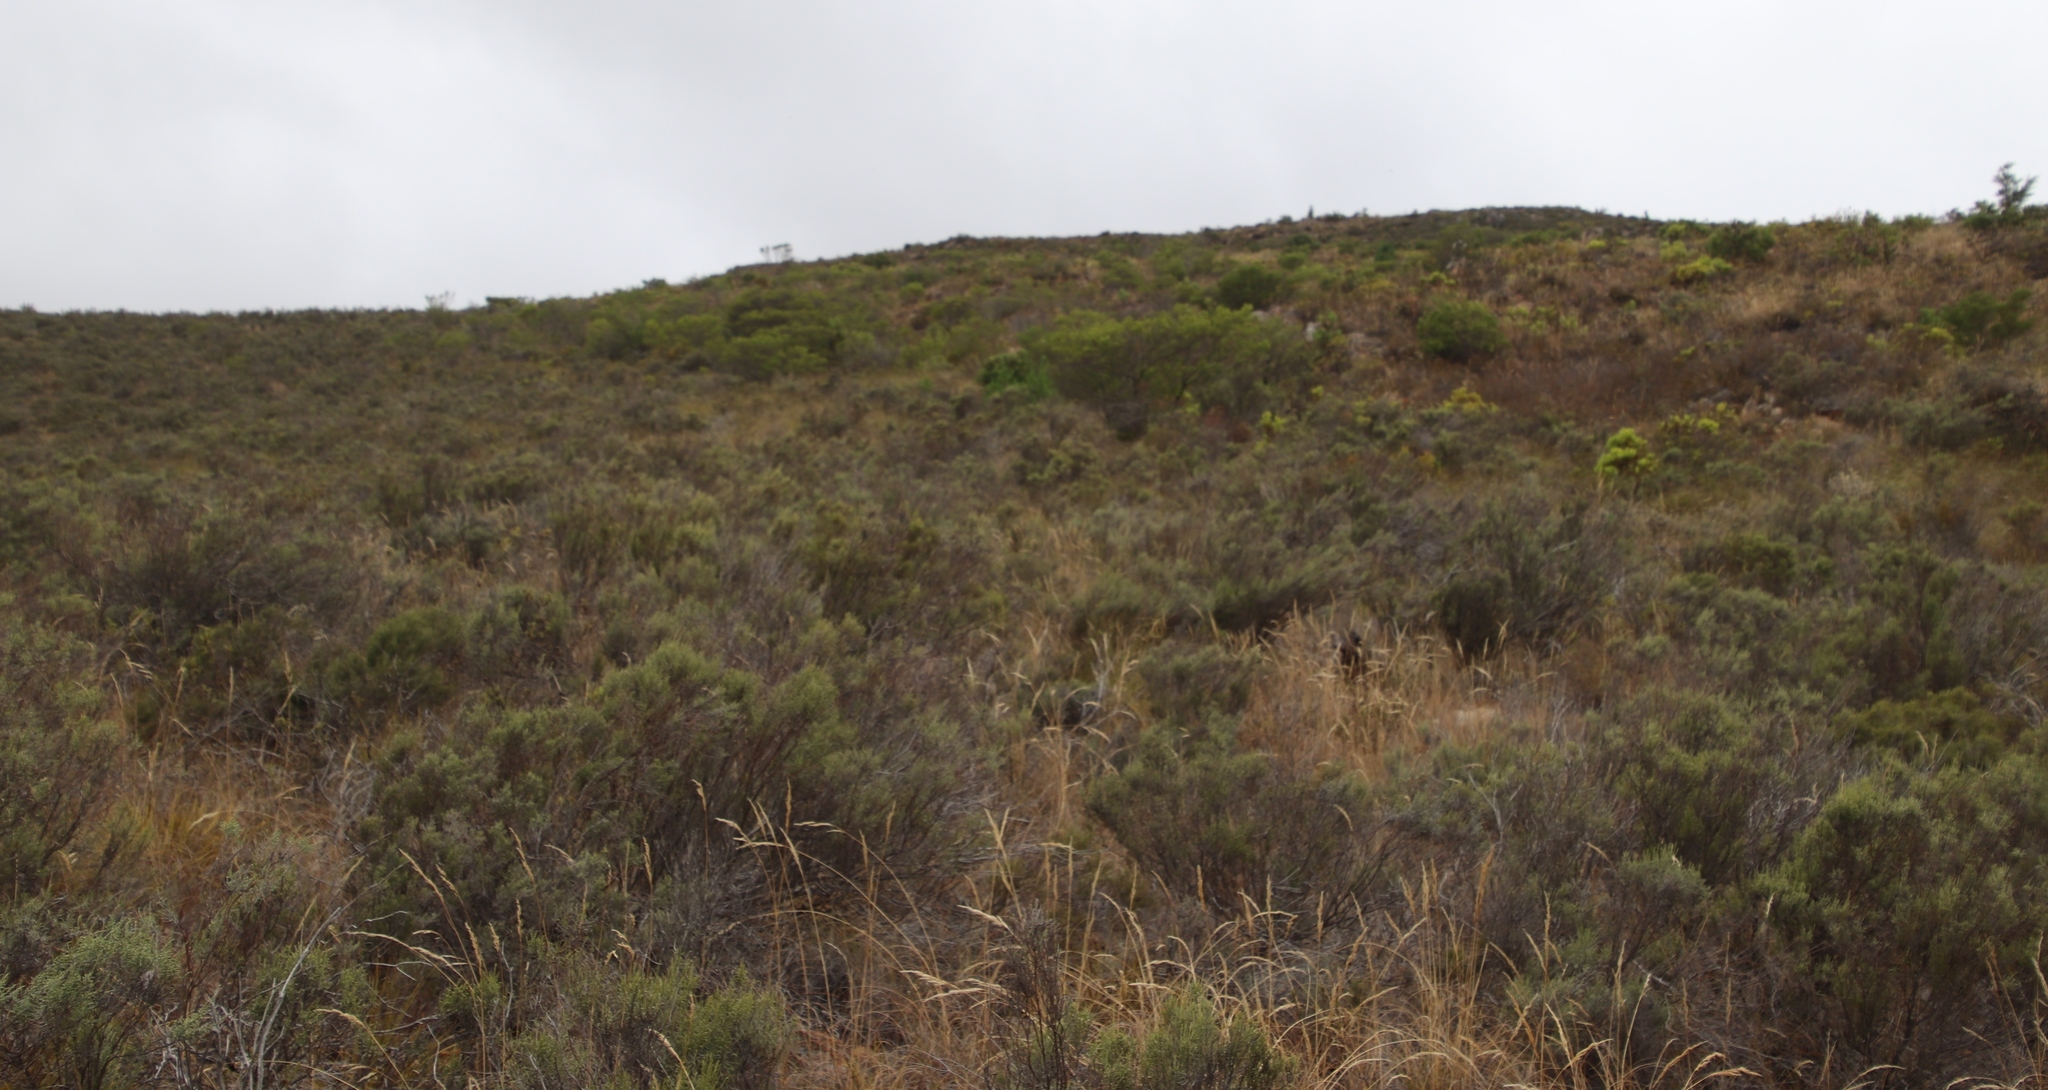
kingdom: Plantae
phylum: Tracheophyta
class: Magnoliopsida
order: Asterales
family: Asteraceae
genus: Dicerothamnus
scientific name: Dicerothamnus rhinocerotis
